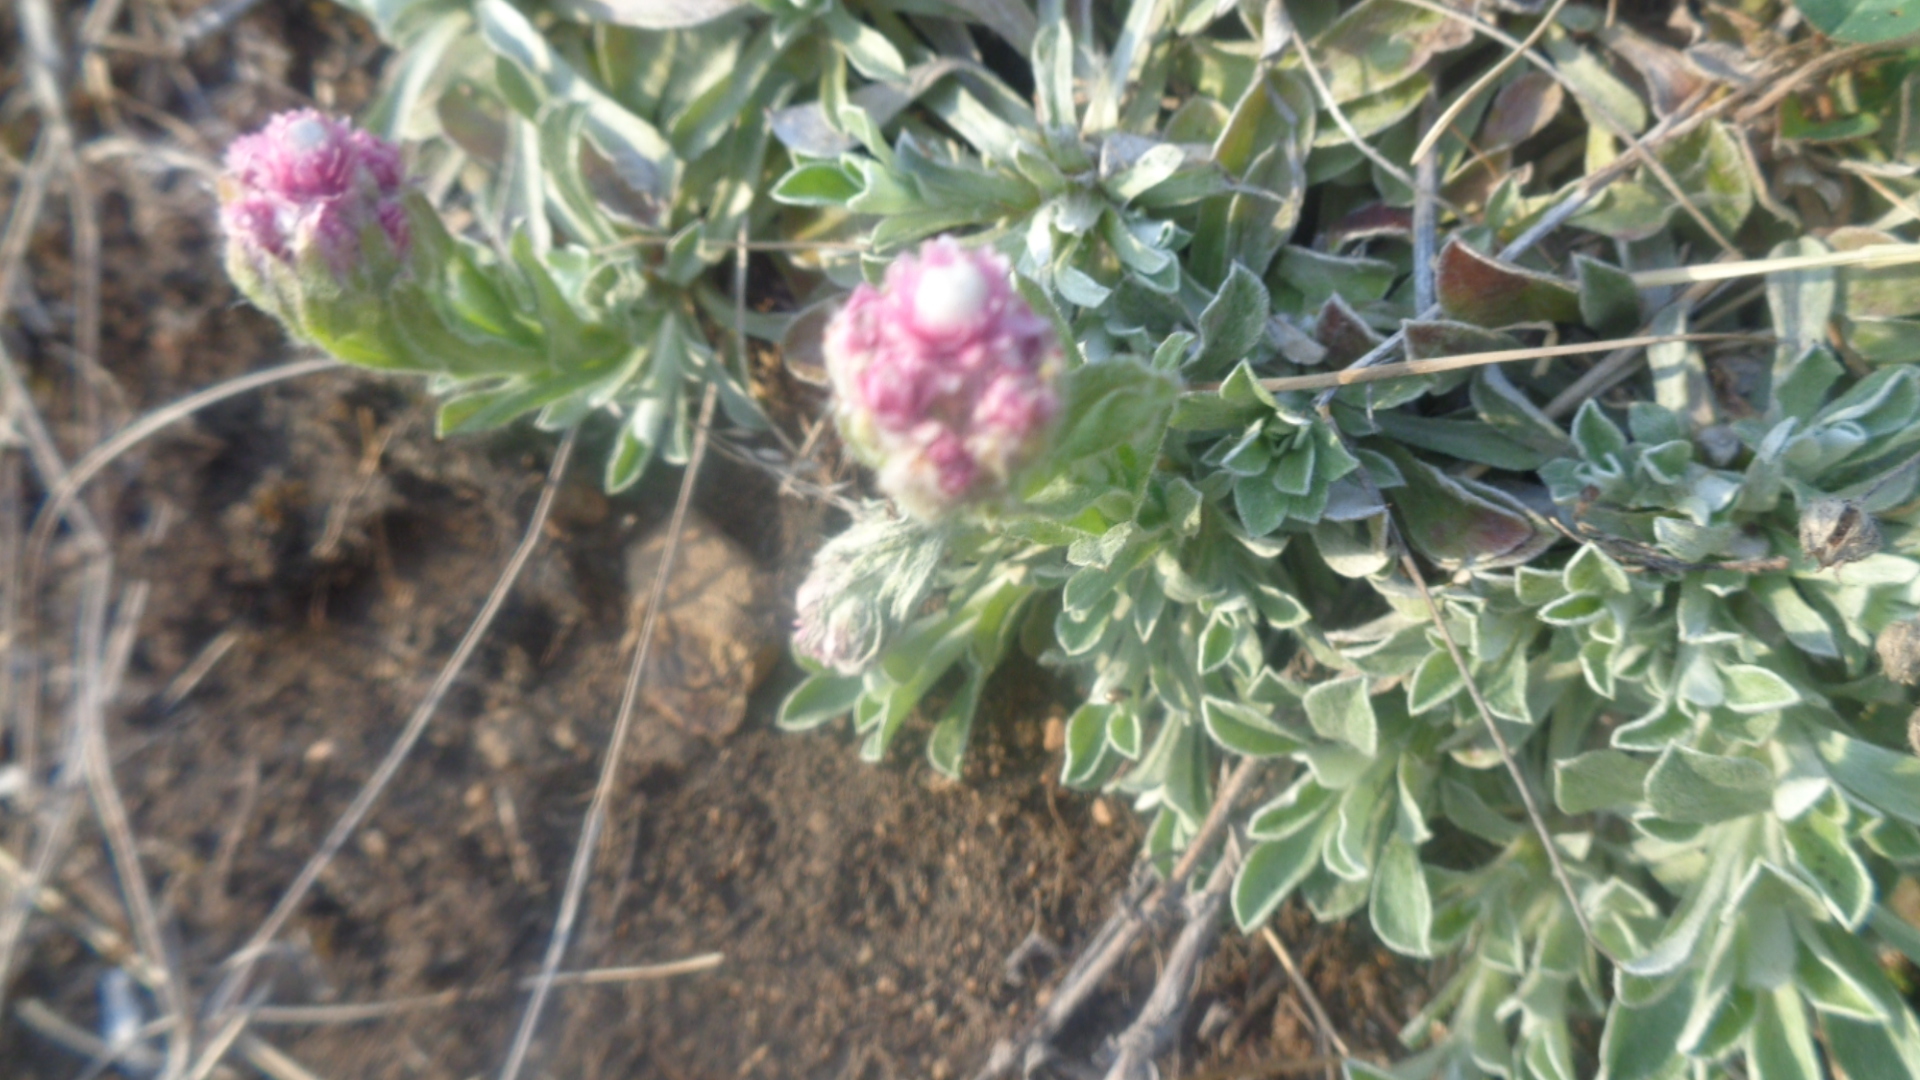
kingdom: Plantae
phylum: Tracheophyta
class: Magnoliopsida
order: Asterales
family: Asteraceae
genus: Antennaria
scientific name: Antennaria dioica
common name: Mountain everlasting
